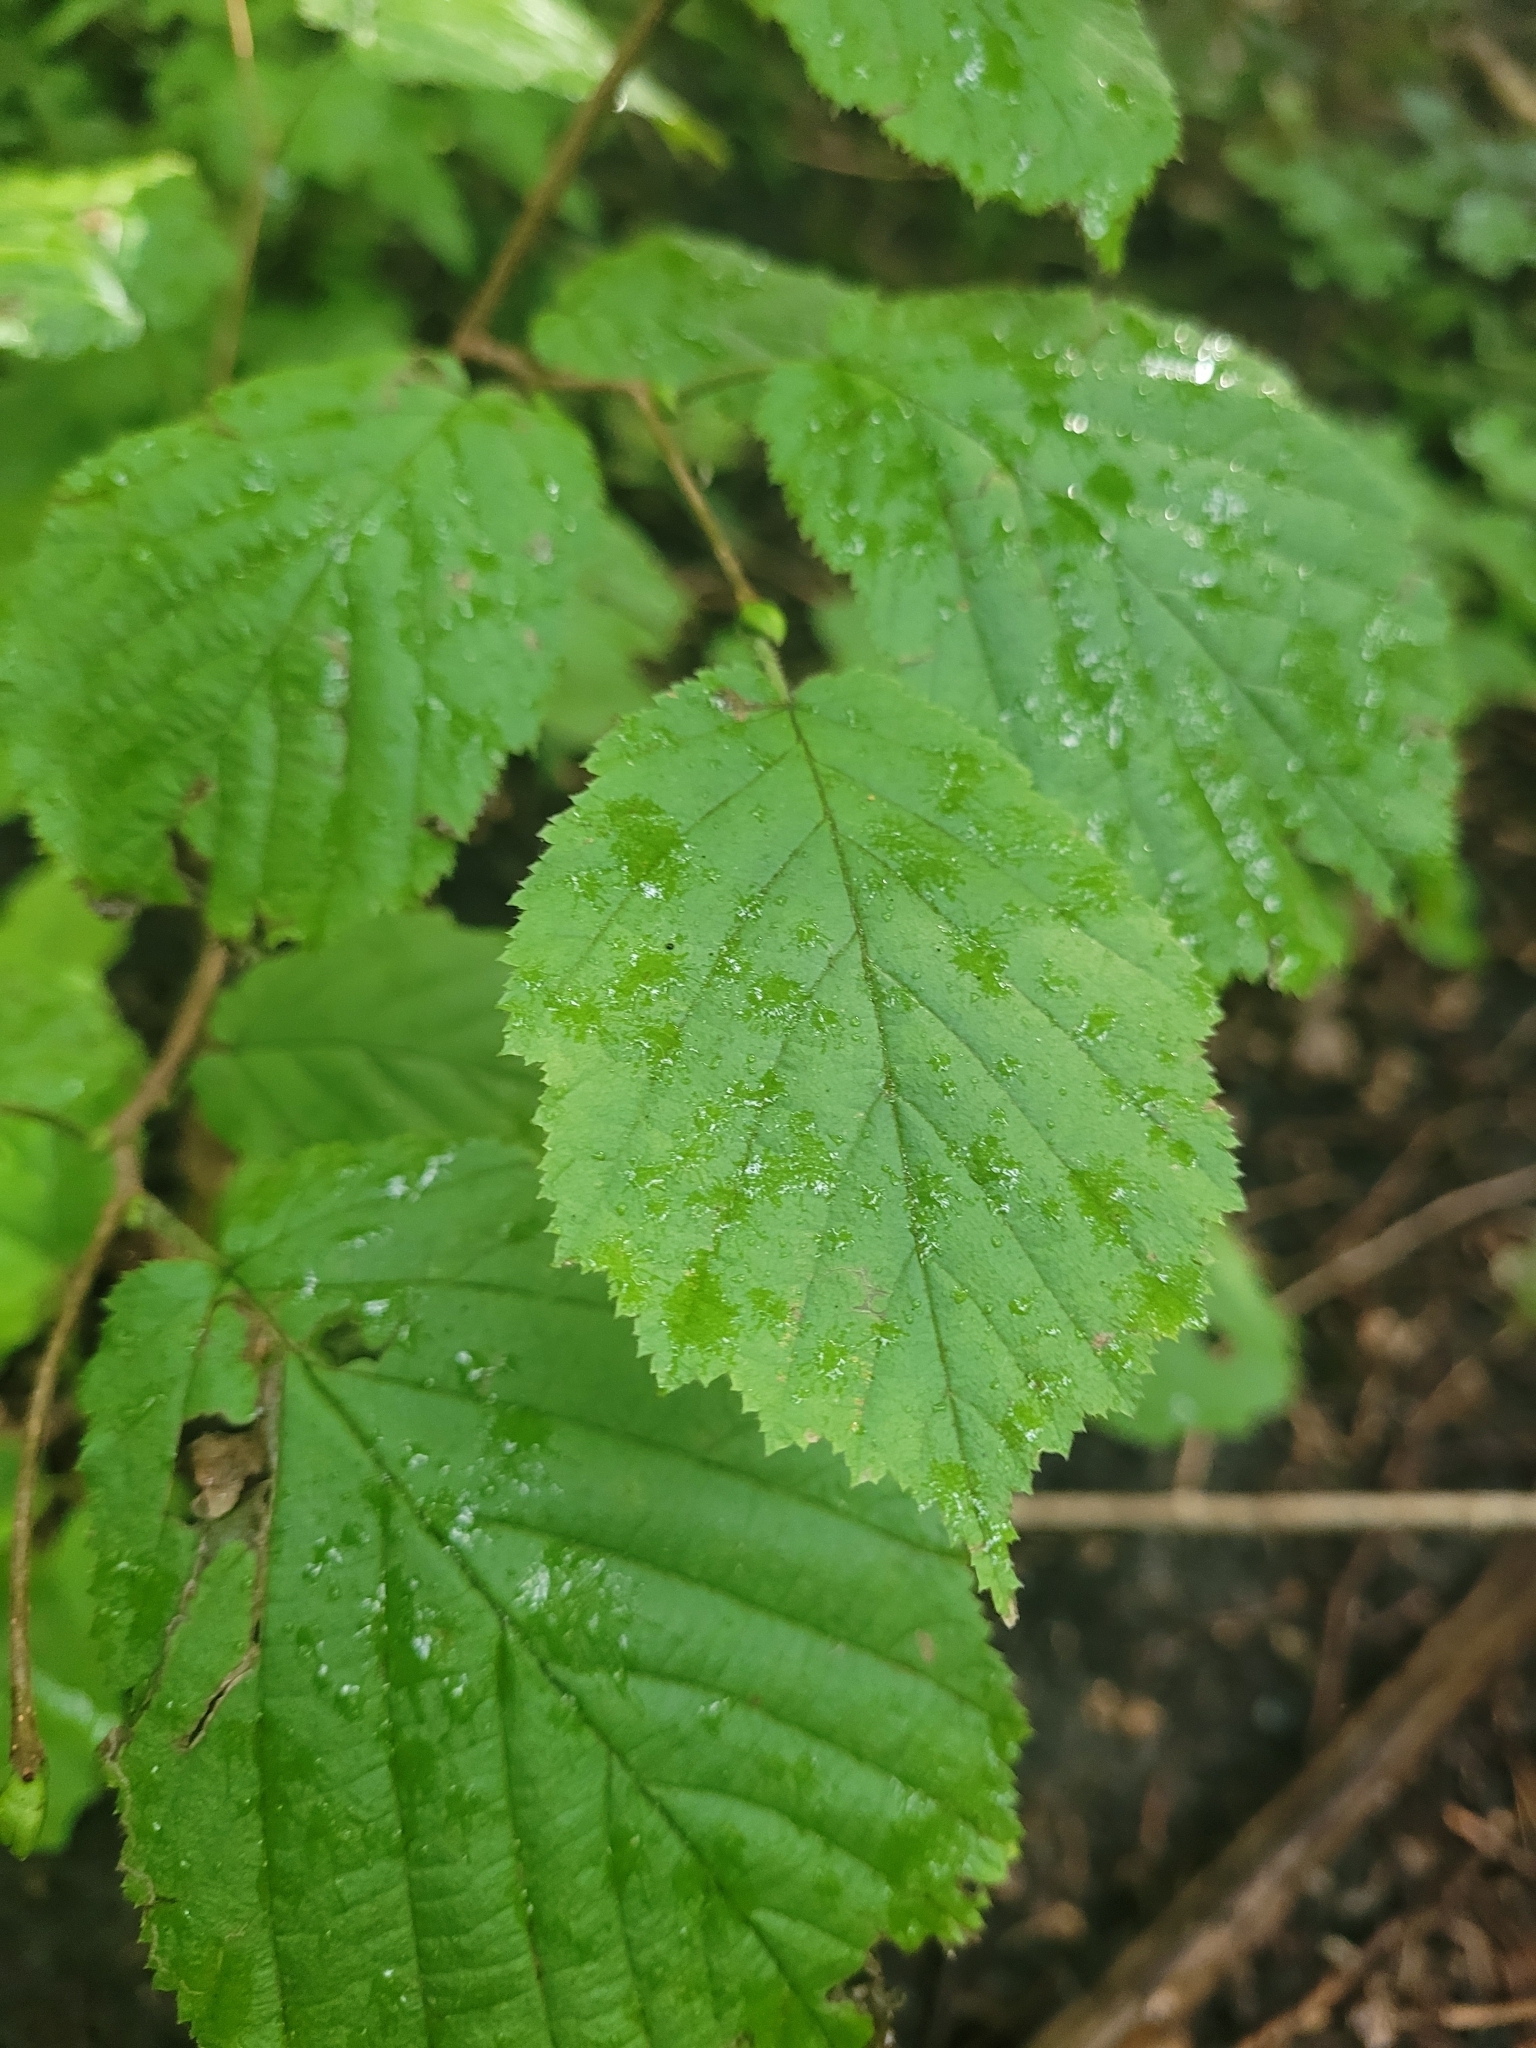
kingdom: Plantae
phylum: Tracheophyta
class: Magnoliopsida
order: Fagales
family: Betulaceae
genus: Corylus
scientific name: Corylus avellana
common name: European hazel
